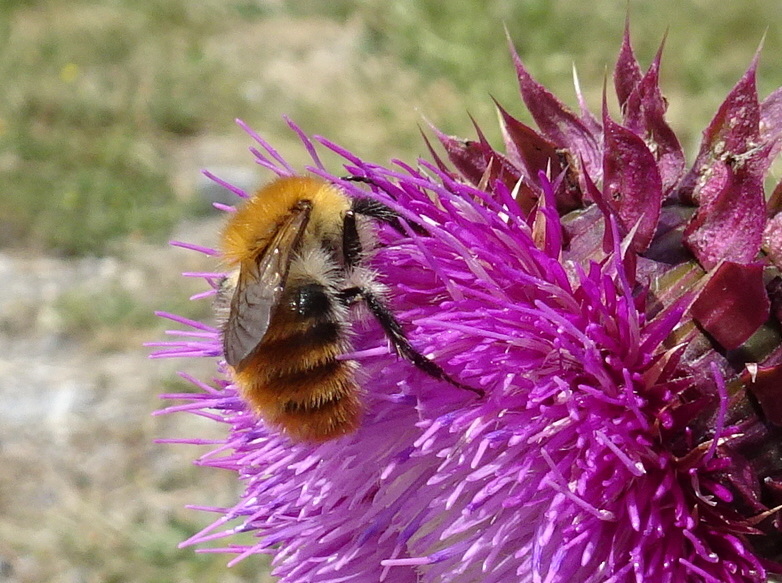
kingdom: Animalia
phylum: Arthropoda
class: Insecta
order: Hymenoptera
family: Apidae
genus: Bombus
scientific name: Bombus pascuorum
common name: Common carder bee
